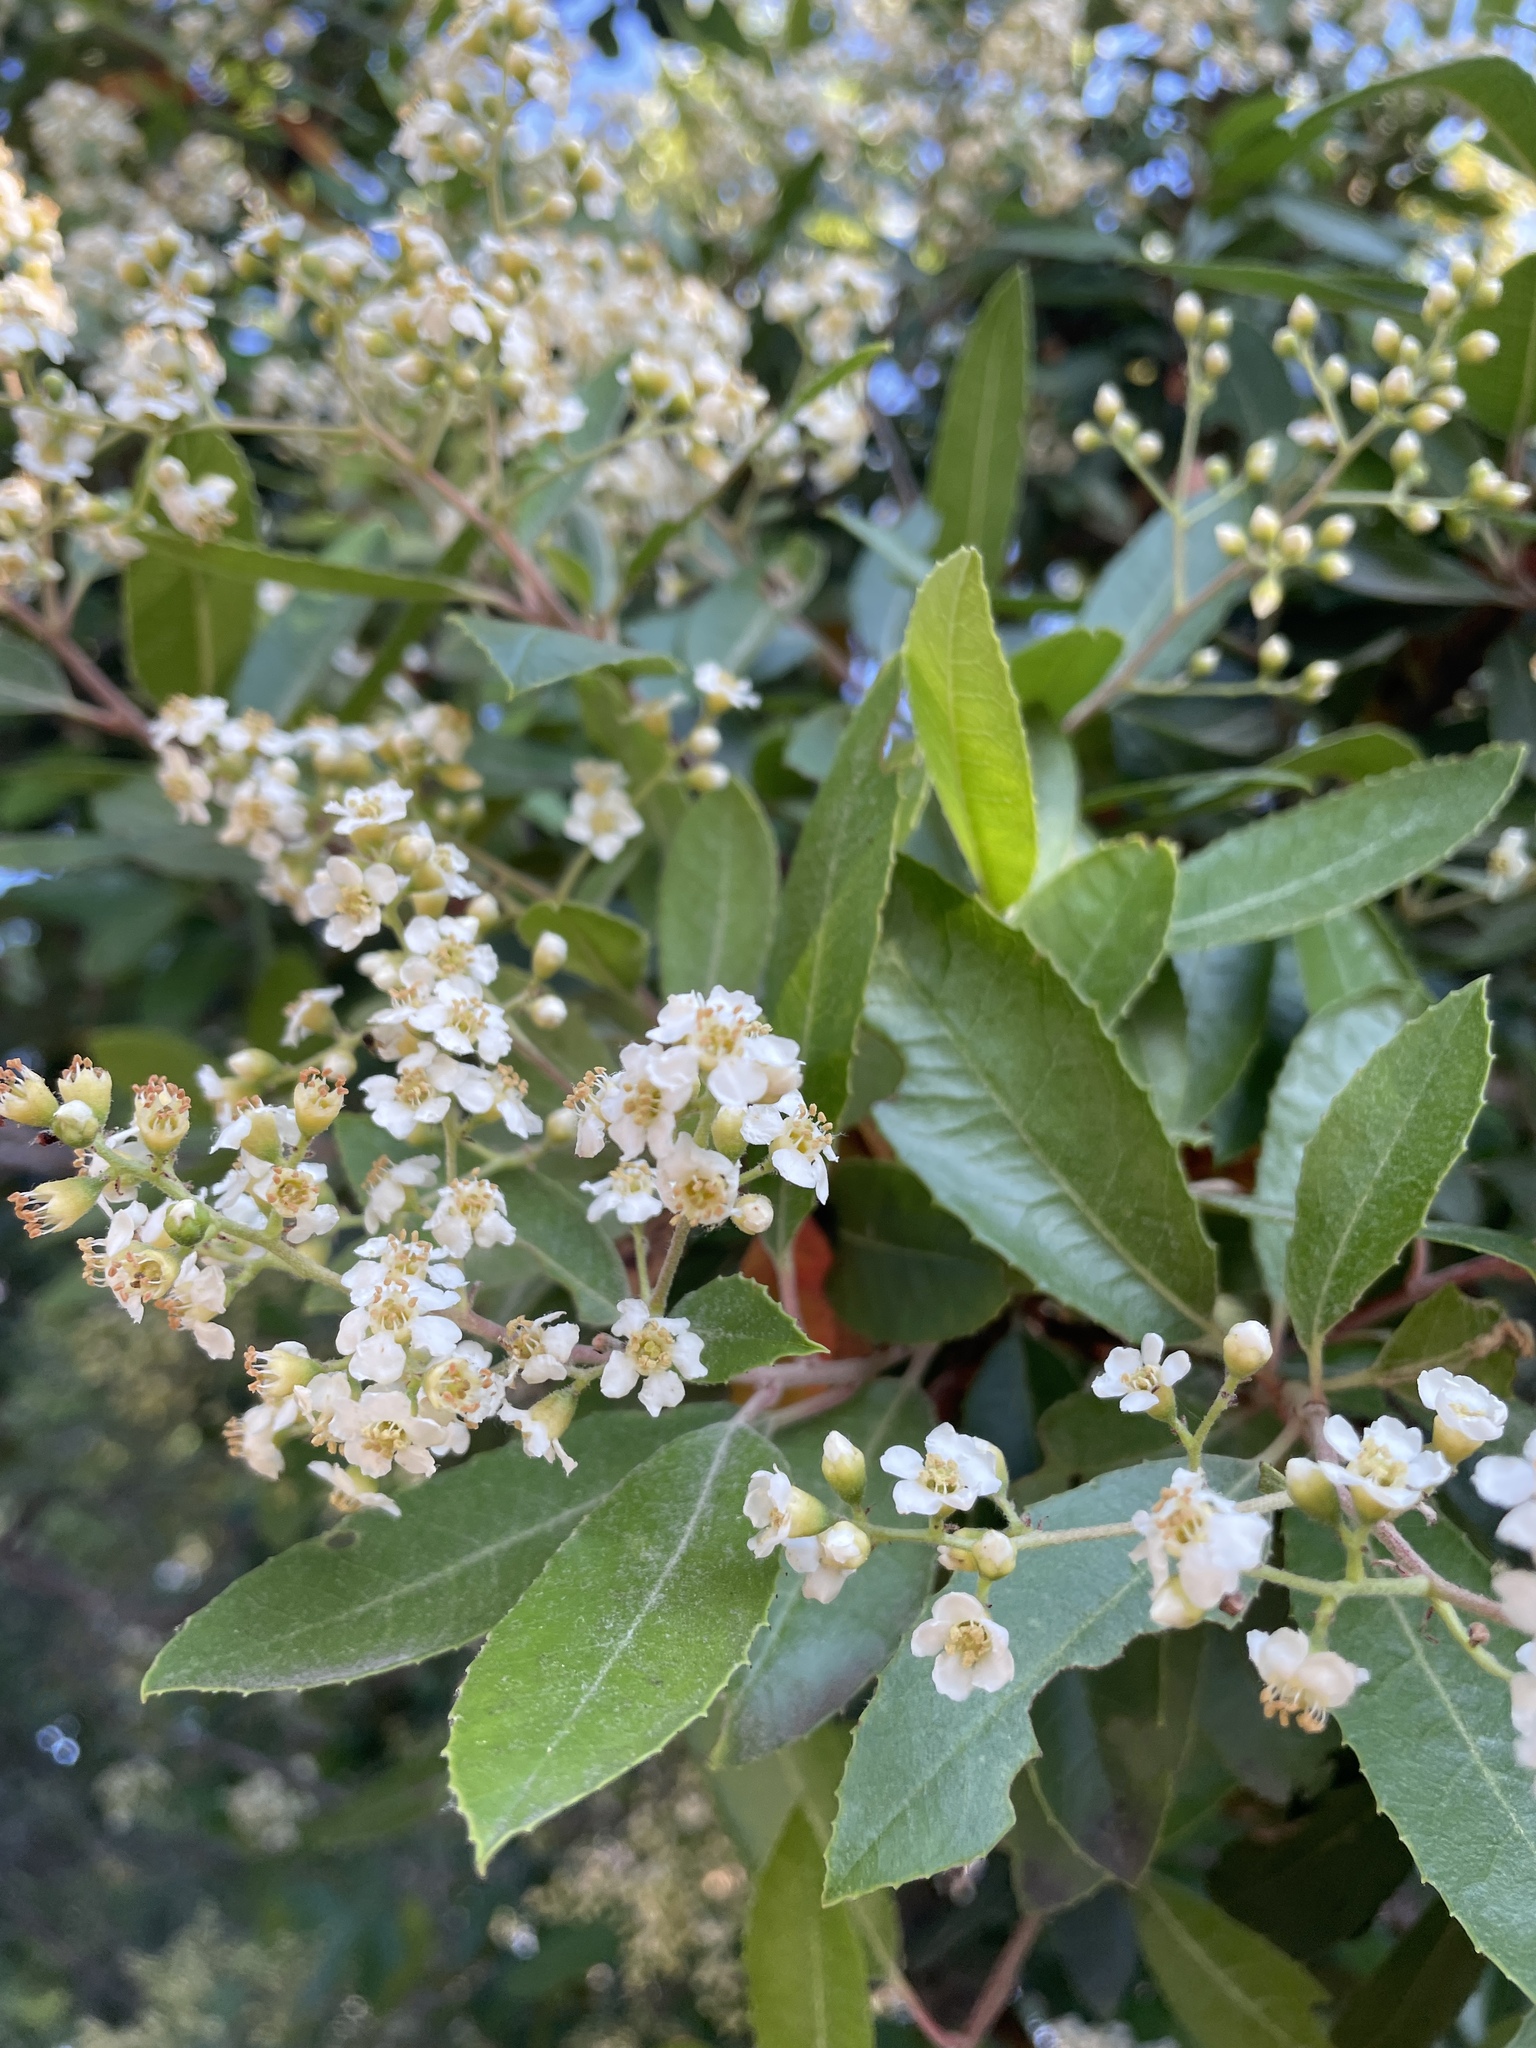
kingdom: Plantae
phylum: Tracheophyta
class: Magnoliopsida
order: Rosales
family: Rosaceae
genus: Heteromeles
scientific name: Heteromeles arbutifolia
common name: California-holly
